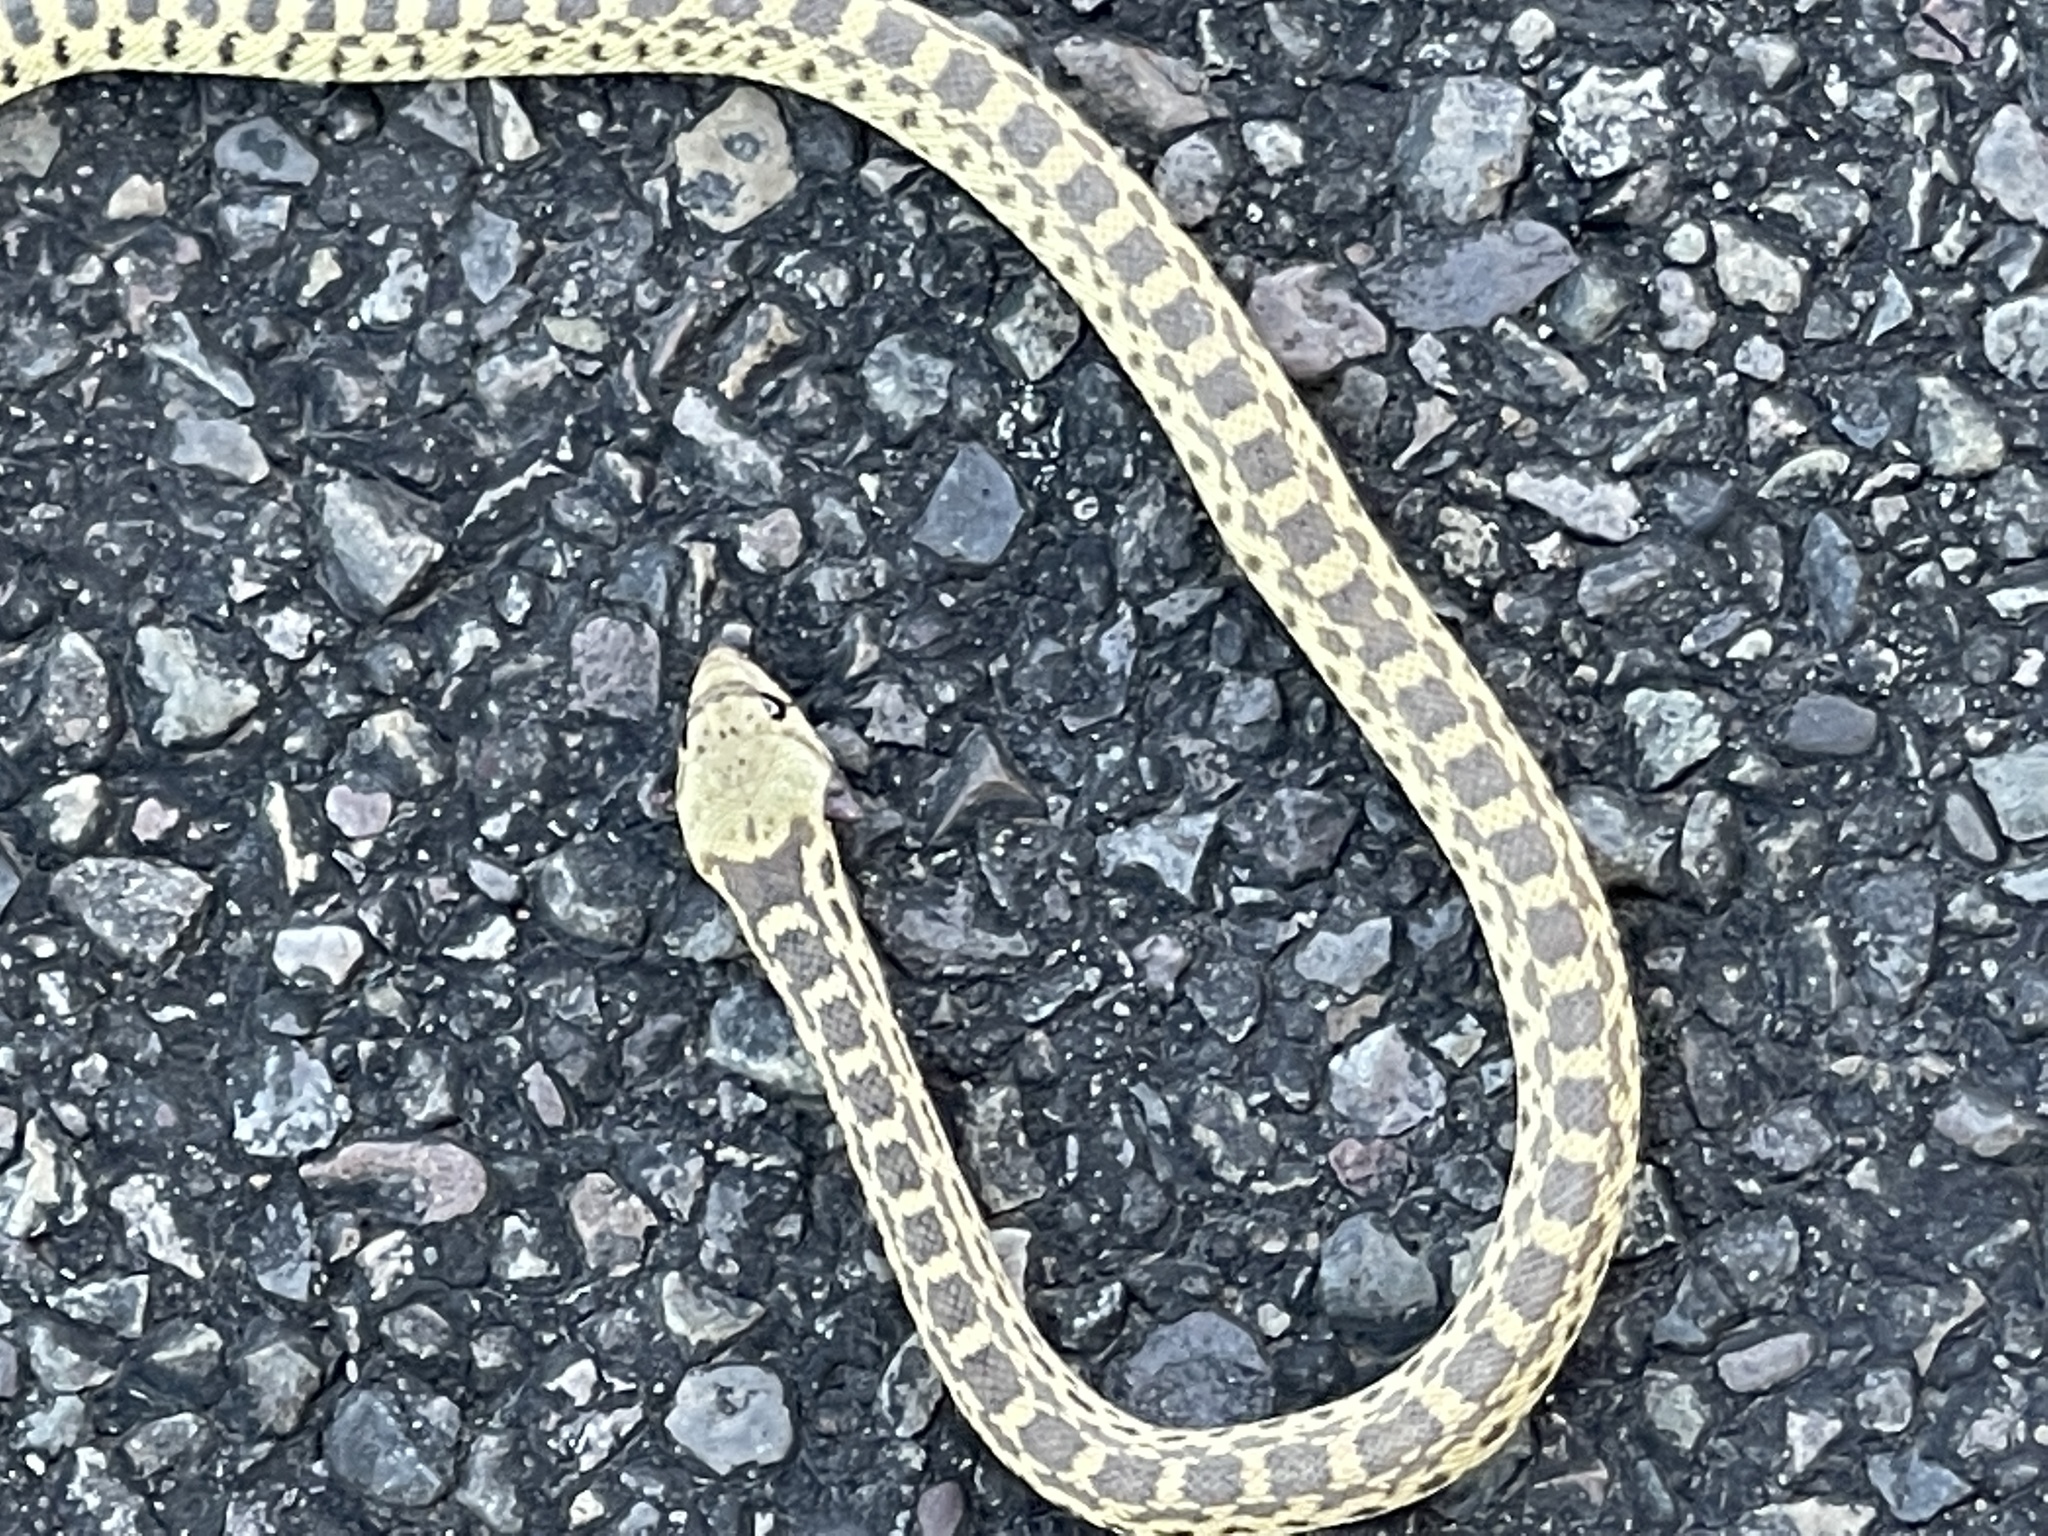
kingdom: Animalia
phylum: Chordata
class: Squamata
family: Colubridae
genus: Pituophis
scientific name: Pituophis catenifer
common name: Gopher snake
